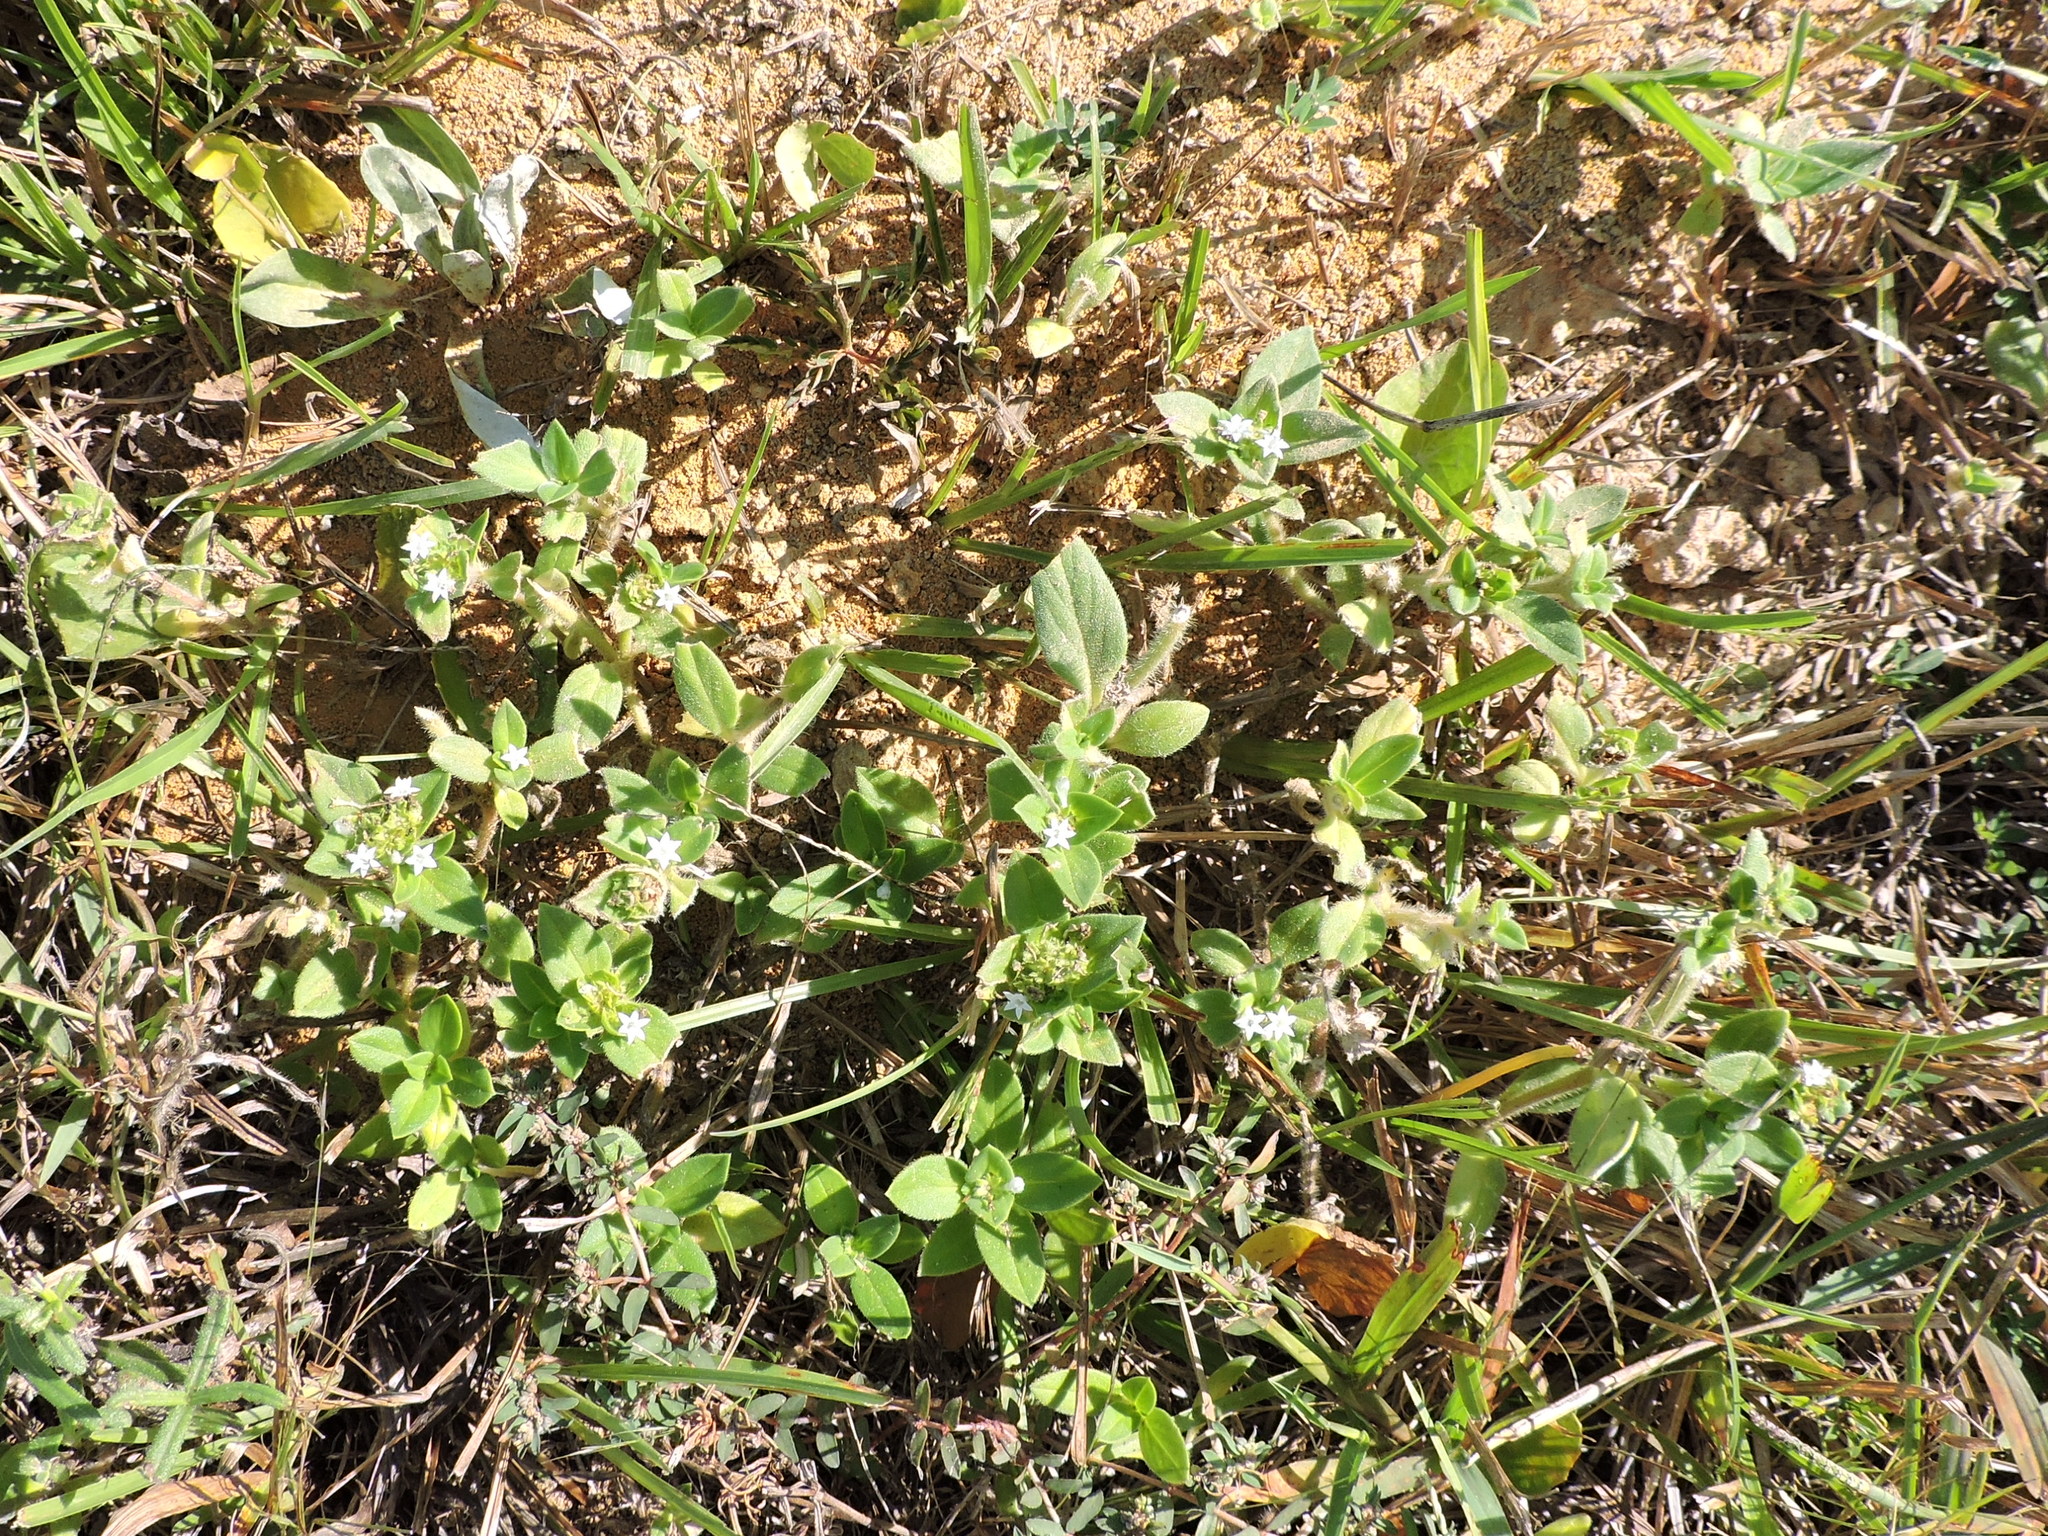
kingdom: Plantae
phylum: Tracheophyta
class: Magnoliopsida
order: Gentianales
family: Rubiaceae
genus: Richardia
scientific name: Richardia scabra
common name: Rough mexican clover
